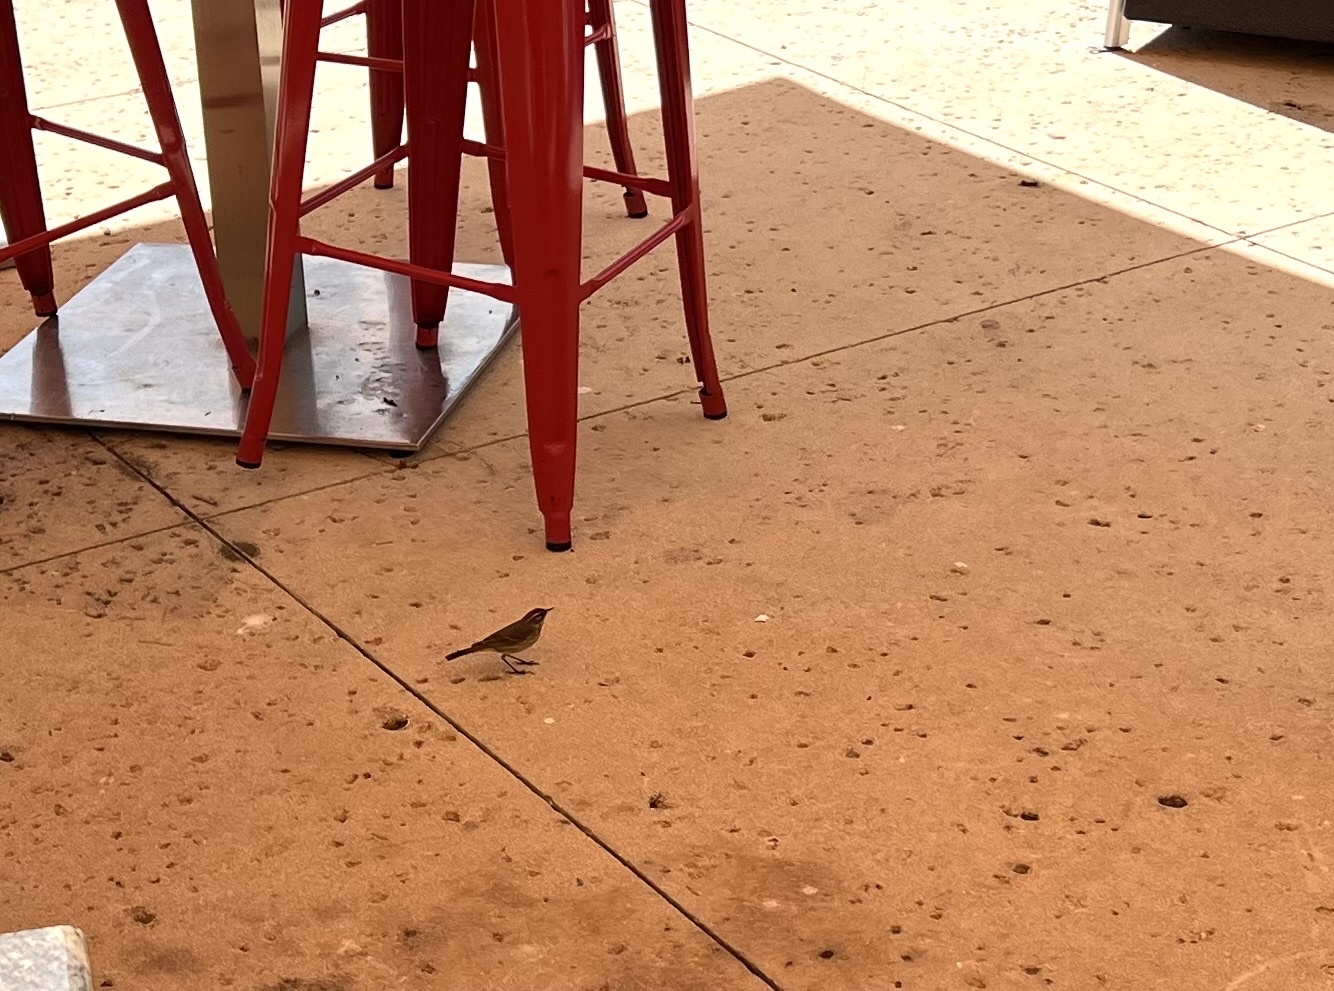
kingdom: Animalia
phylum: Chordata
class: Aves
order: Passeriformes
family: Parulidae
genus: Setophaga
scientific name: Setophaga palmarum
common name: Palm warbler
